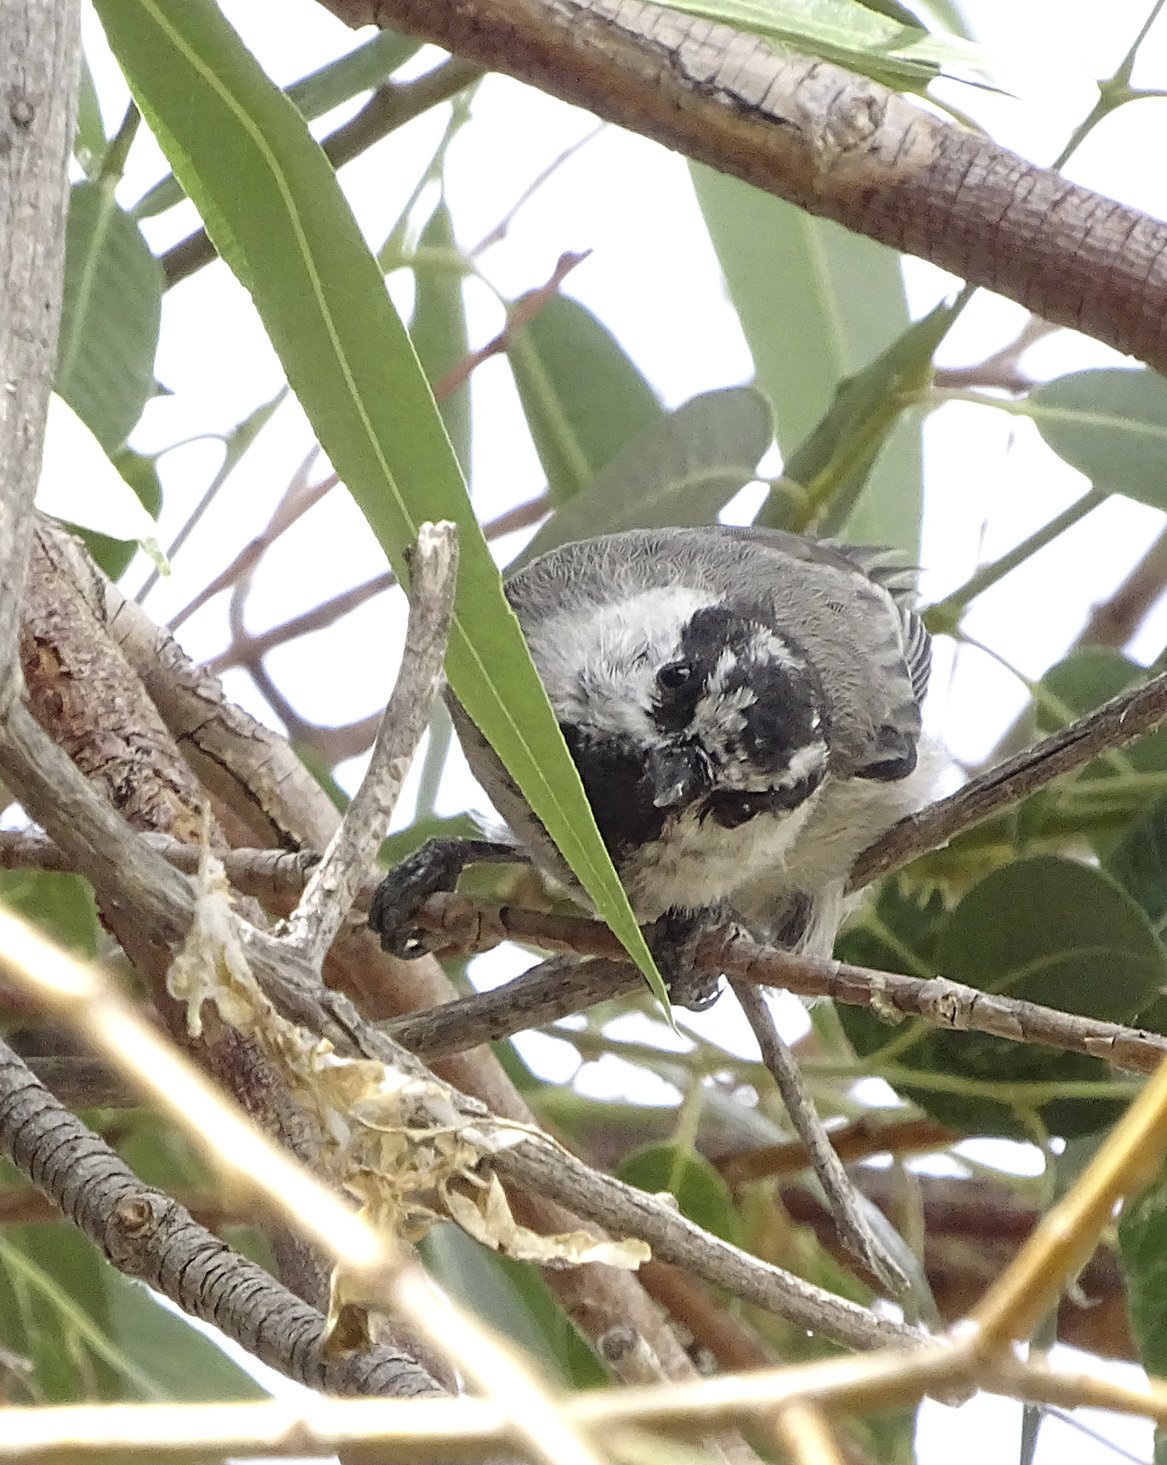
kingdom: Animalia
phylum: Chordata
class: Aves
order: Passeriformes
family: Paridae
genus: Poecile
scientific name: Poecile gambeli
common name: Mountain chickadee
